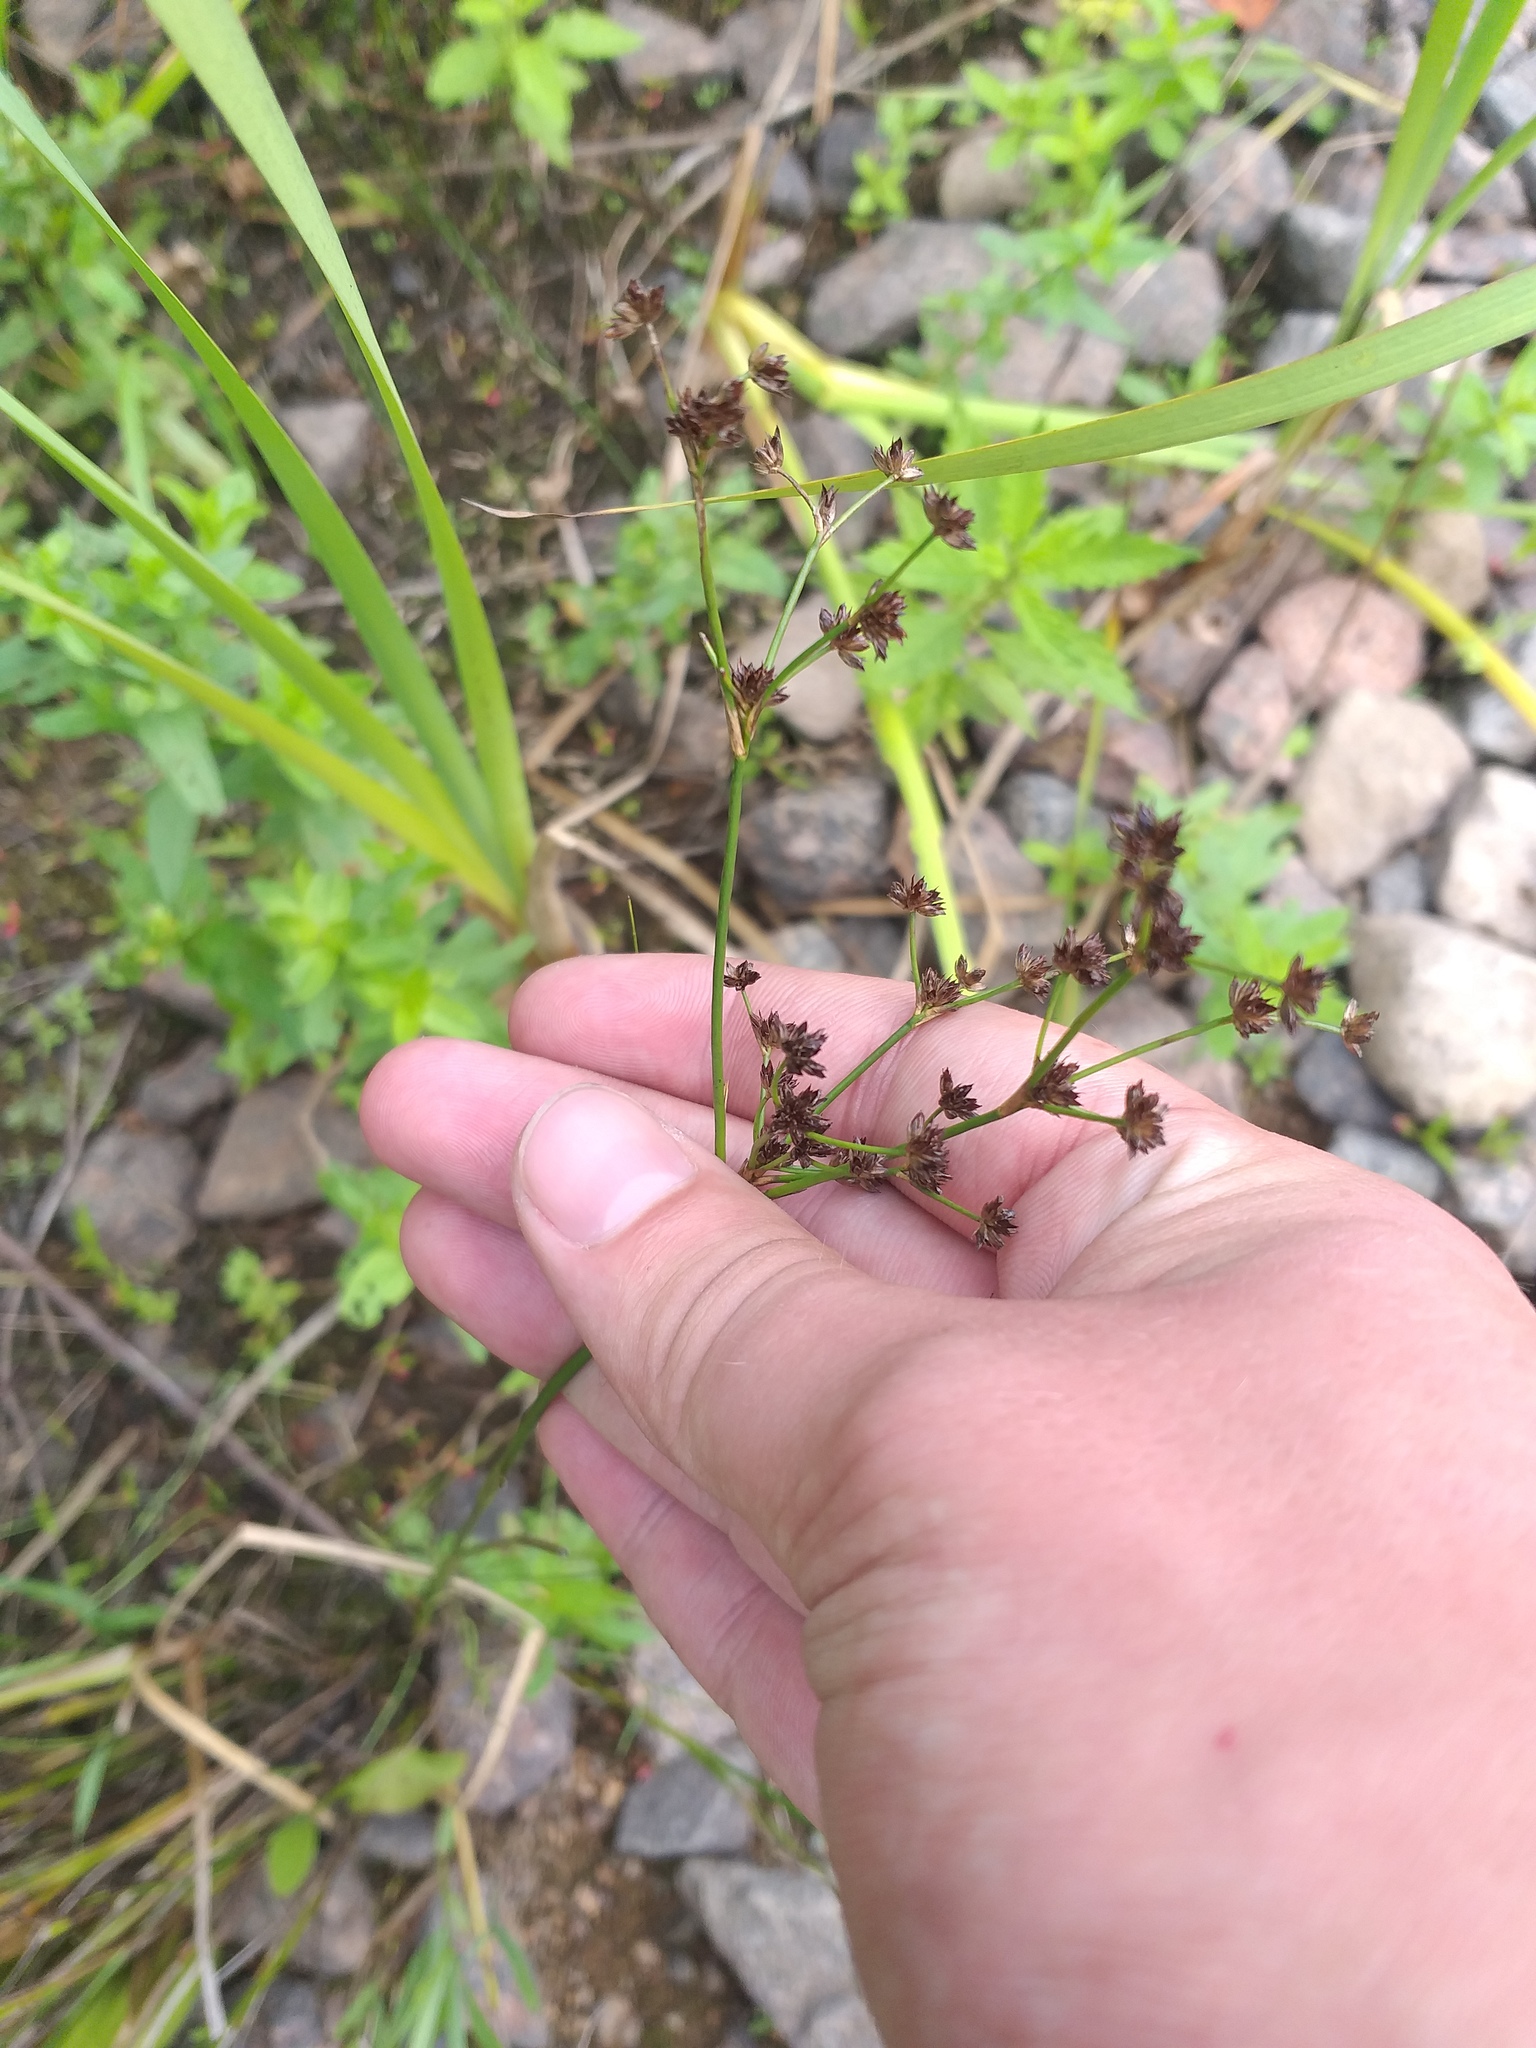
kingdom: Plantae
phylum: Tracheophyta
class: Liliopsida
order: Poales
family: Juncaceae
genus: Juncus
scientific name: Juncus articulatus
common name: Jointed rush
